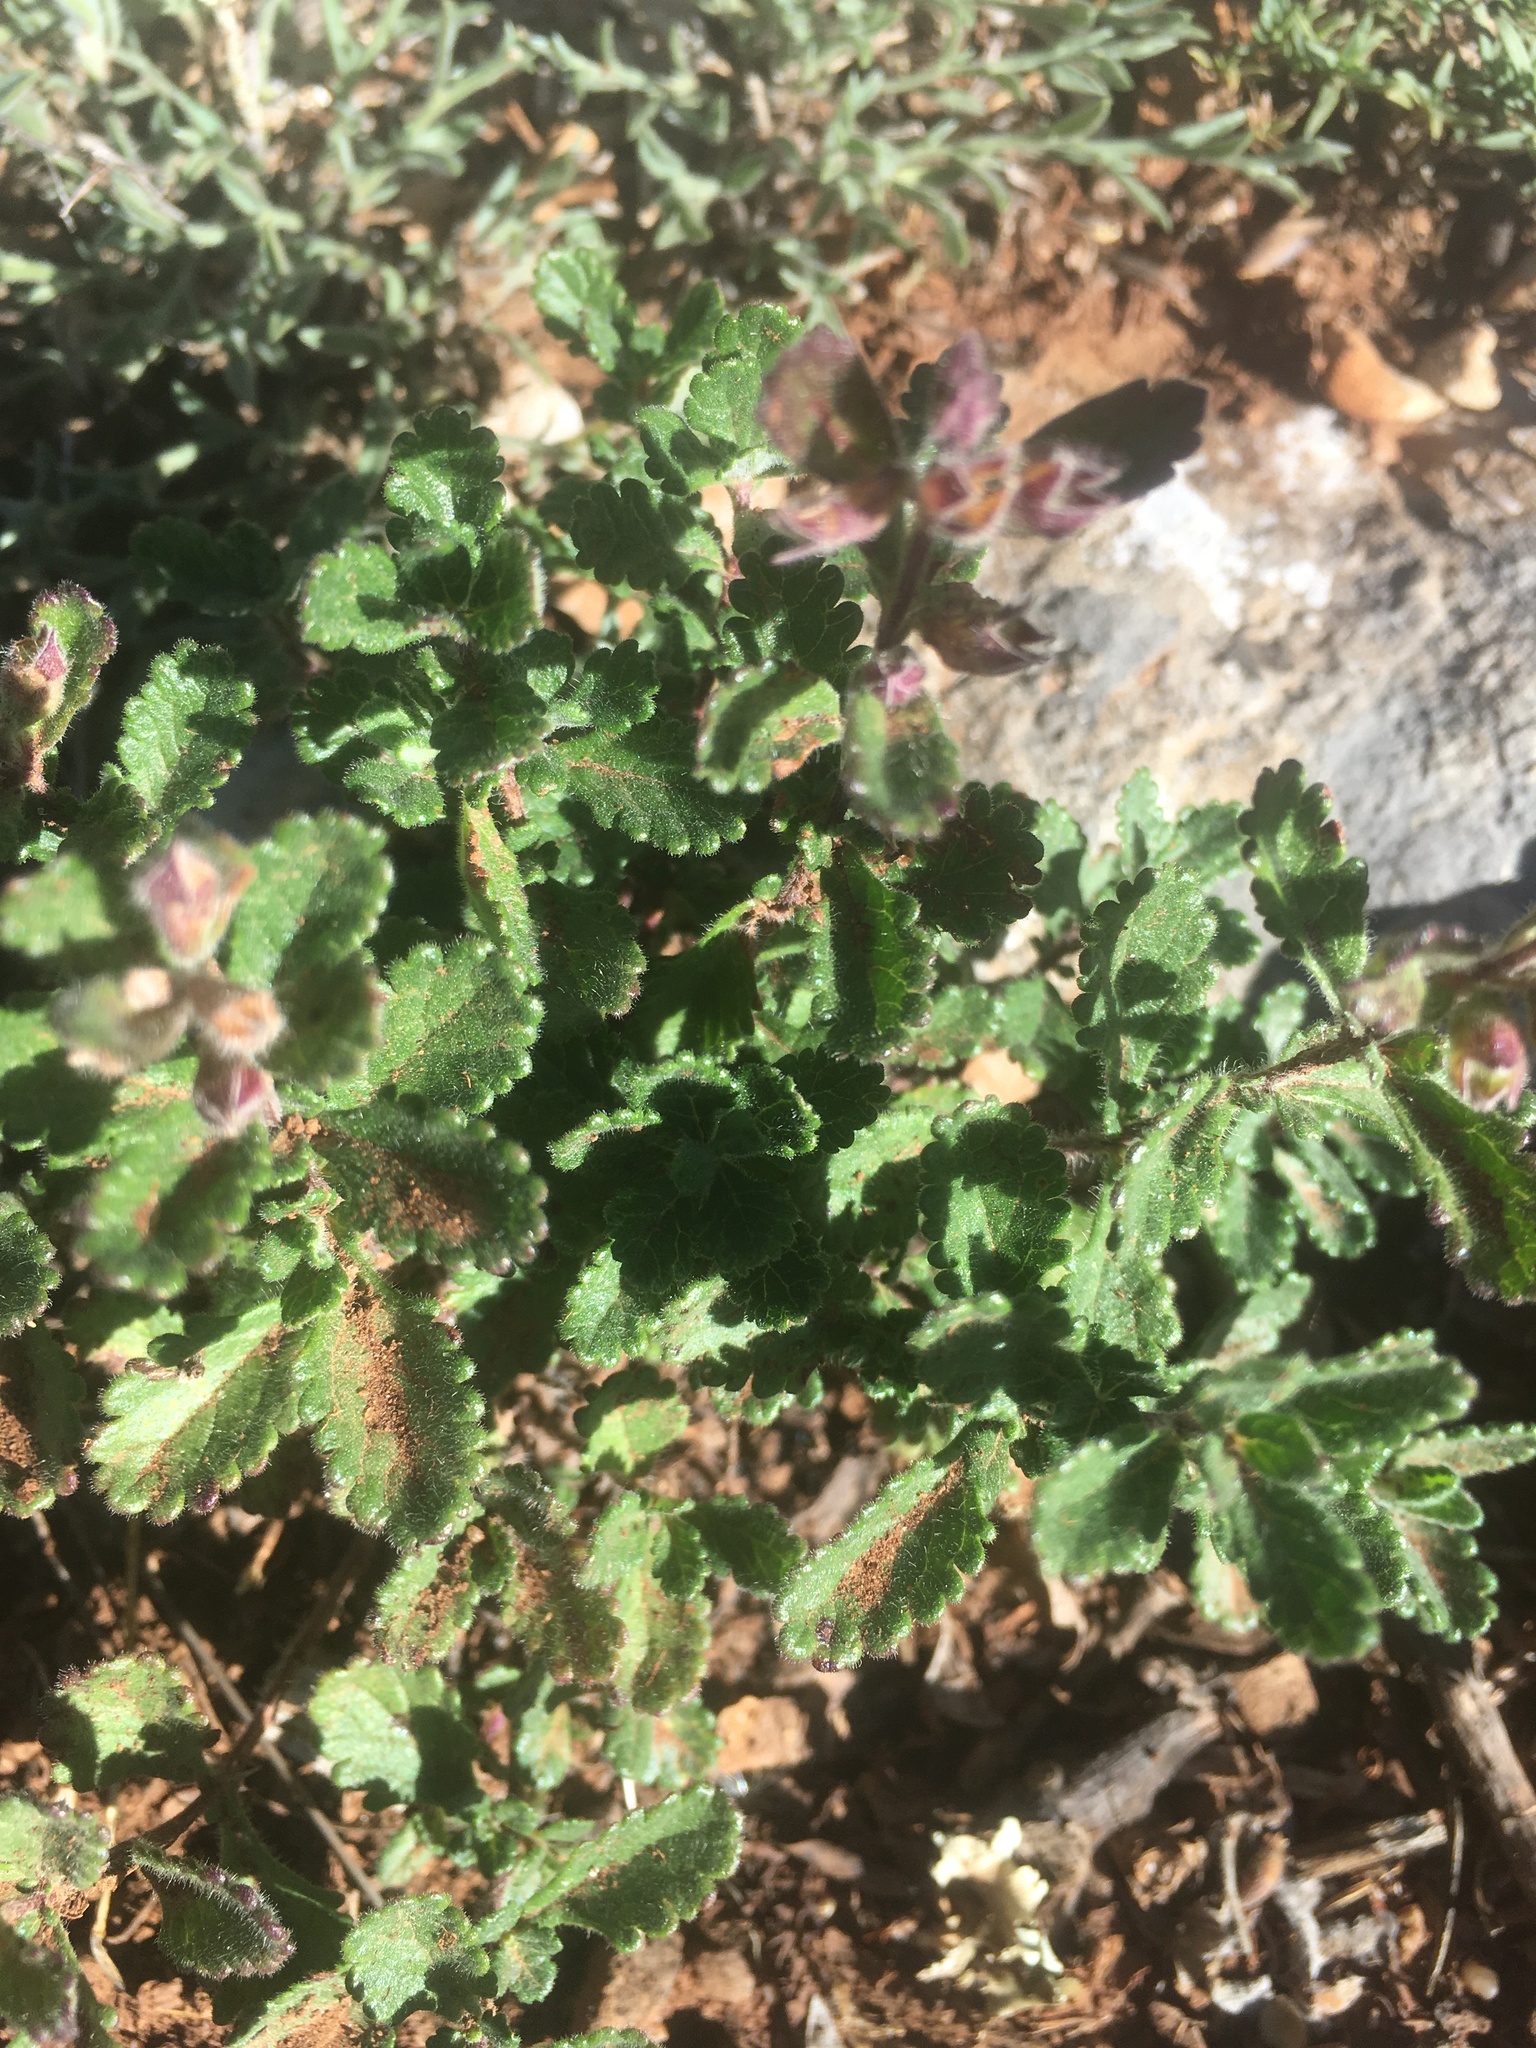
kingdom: Plantae
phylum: Tracheophyta
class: Magnoliopsida
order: Lamiales
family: Lamiaceae
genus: Teucrium
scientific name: Teucrium chamaedrys
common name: Wall germander
